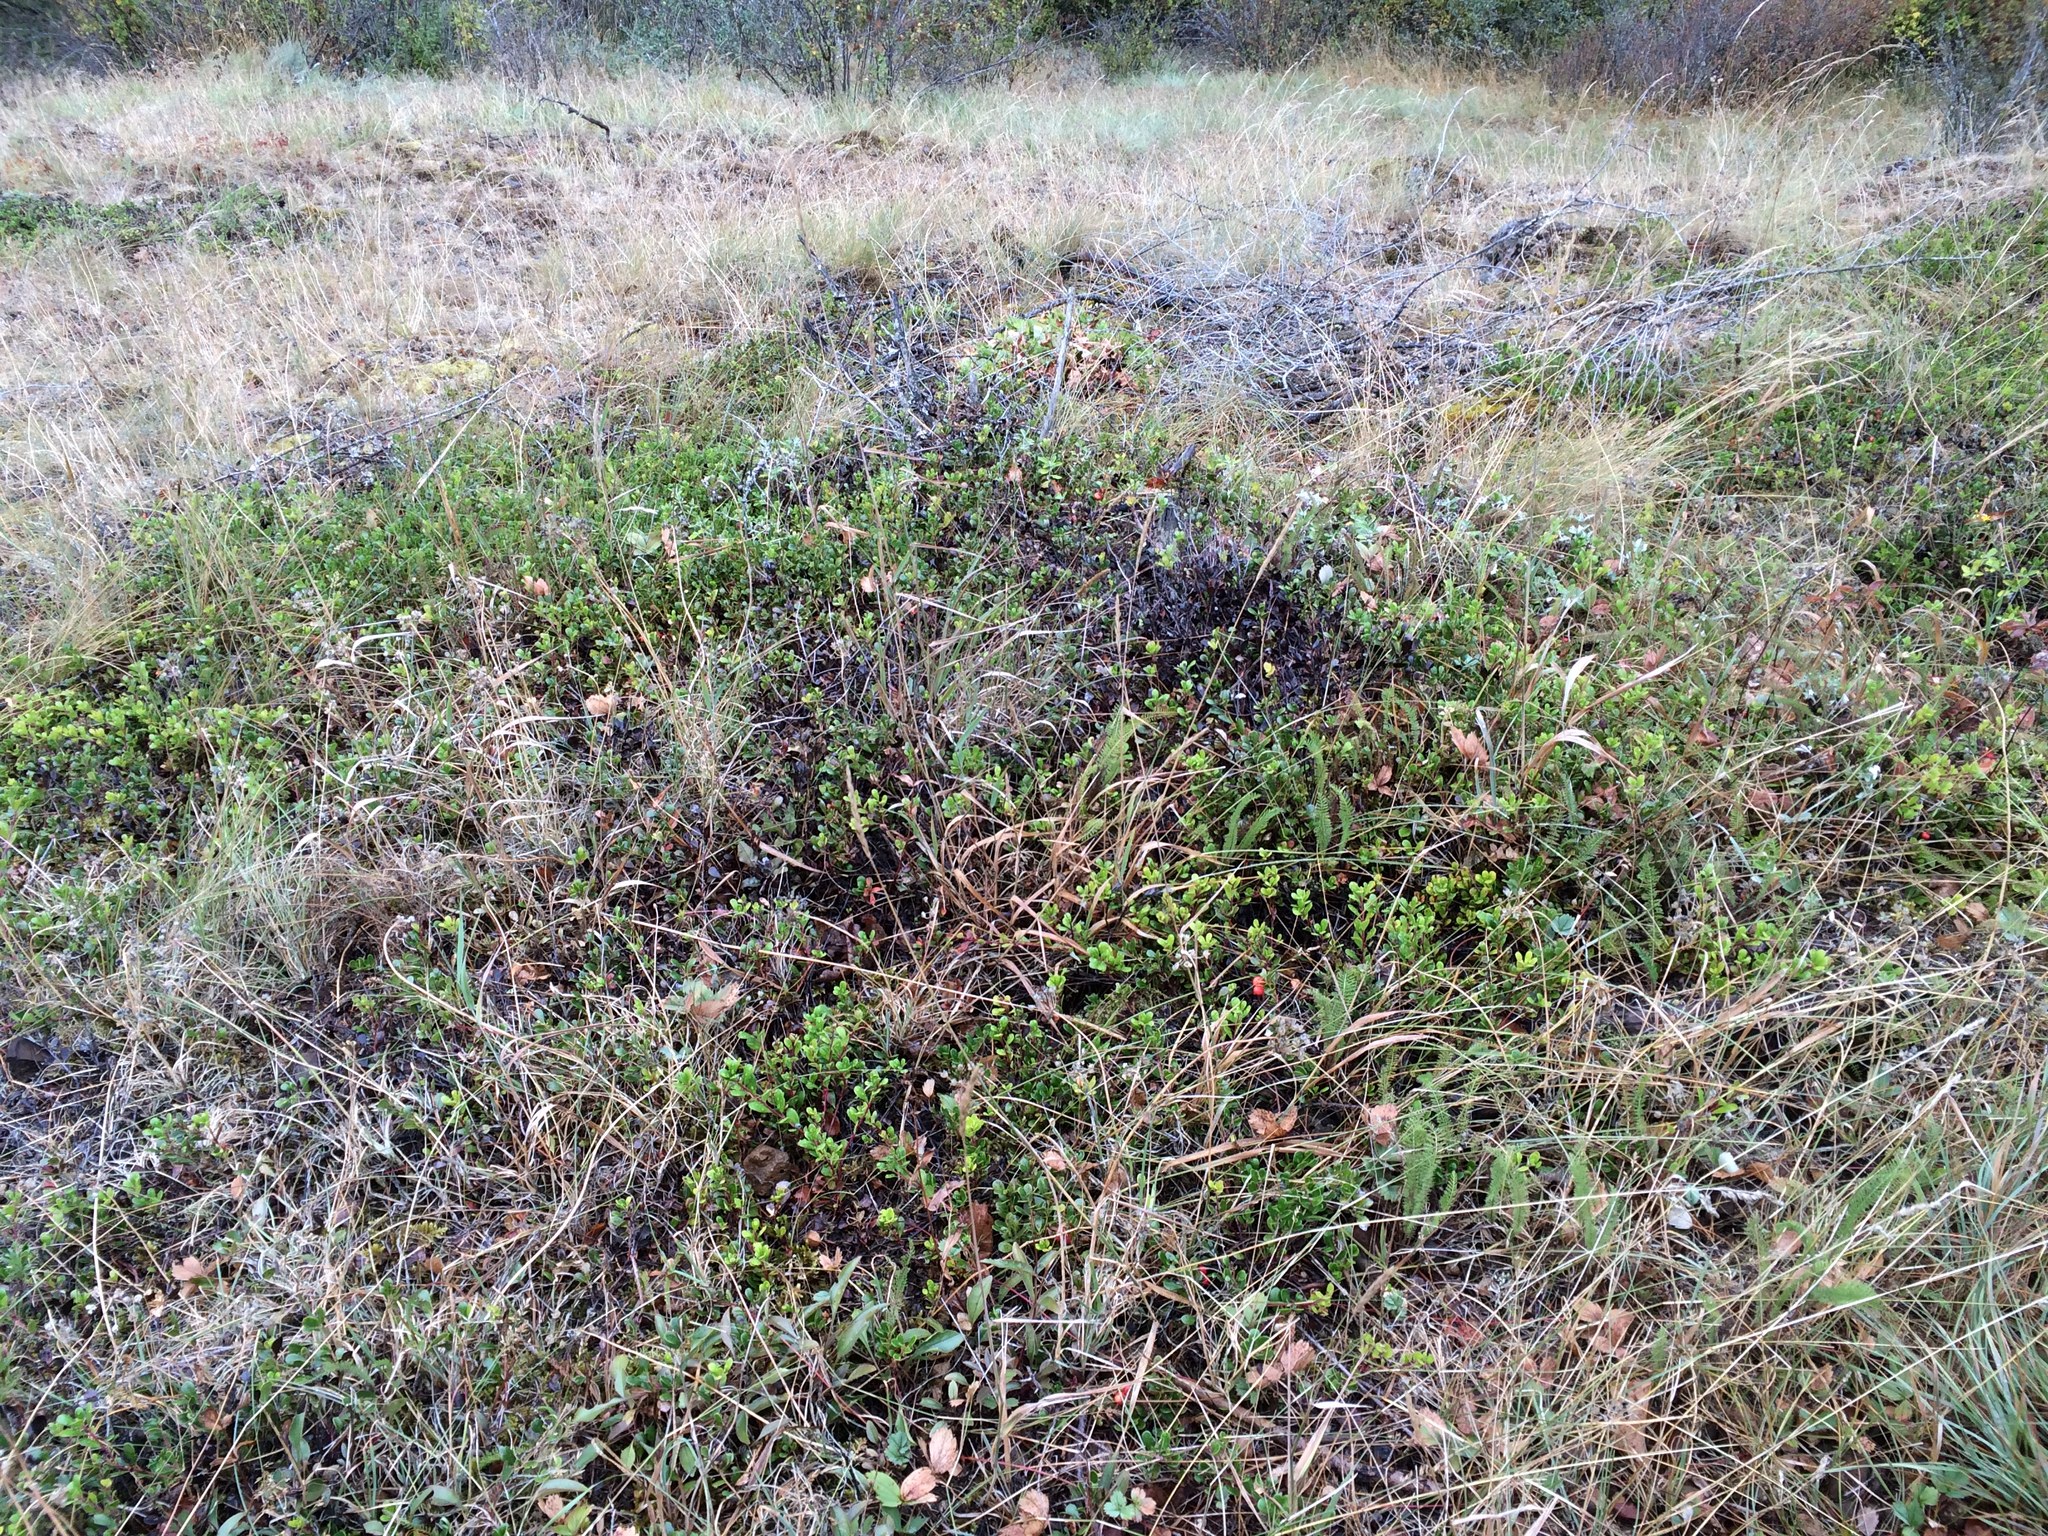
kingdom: Plantae
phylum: Tracheophyta
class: Magnoliopsida
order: Ericales
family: Ericaceae
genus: Arctostaphylos
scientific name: Arctostaphylos uva-ursi
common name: Bearberry
